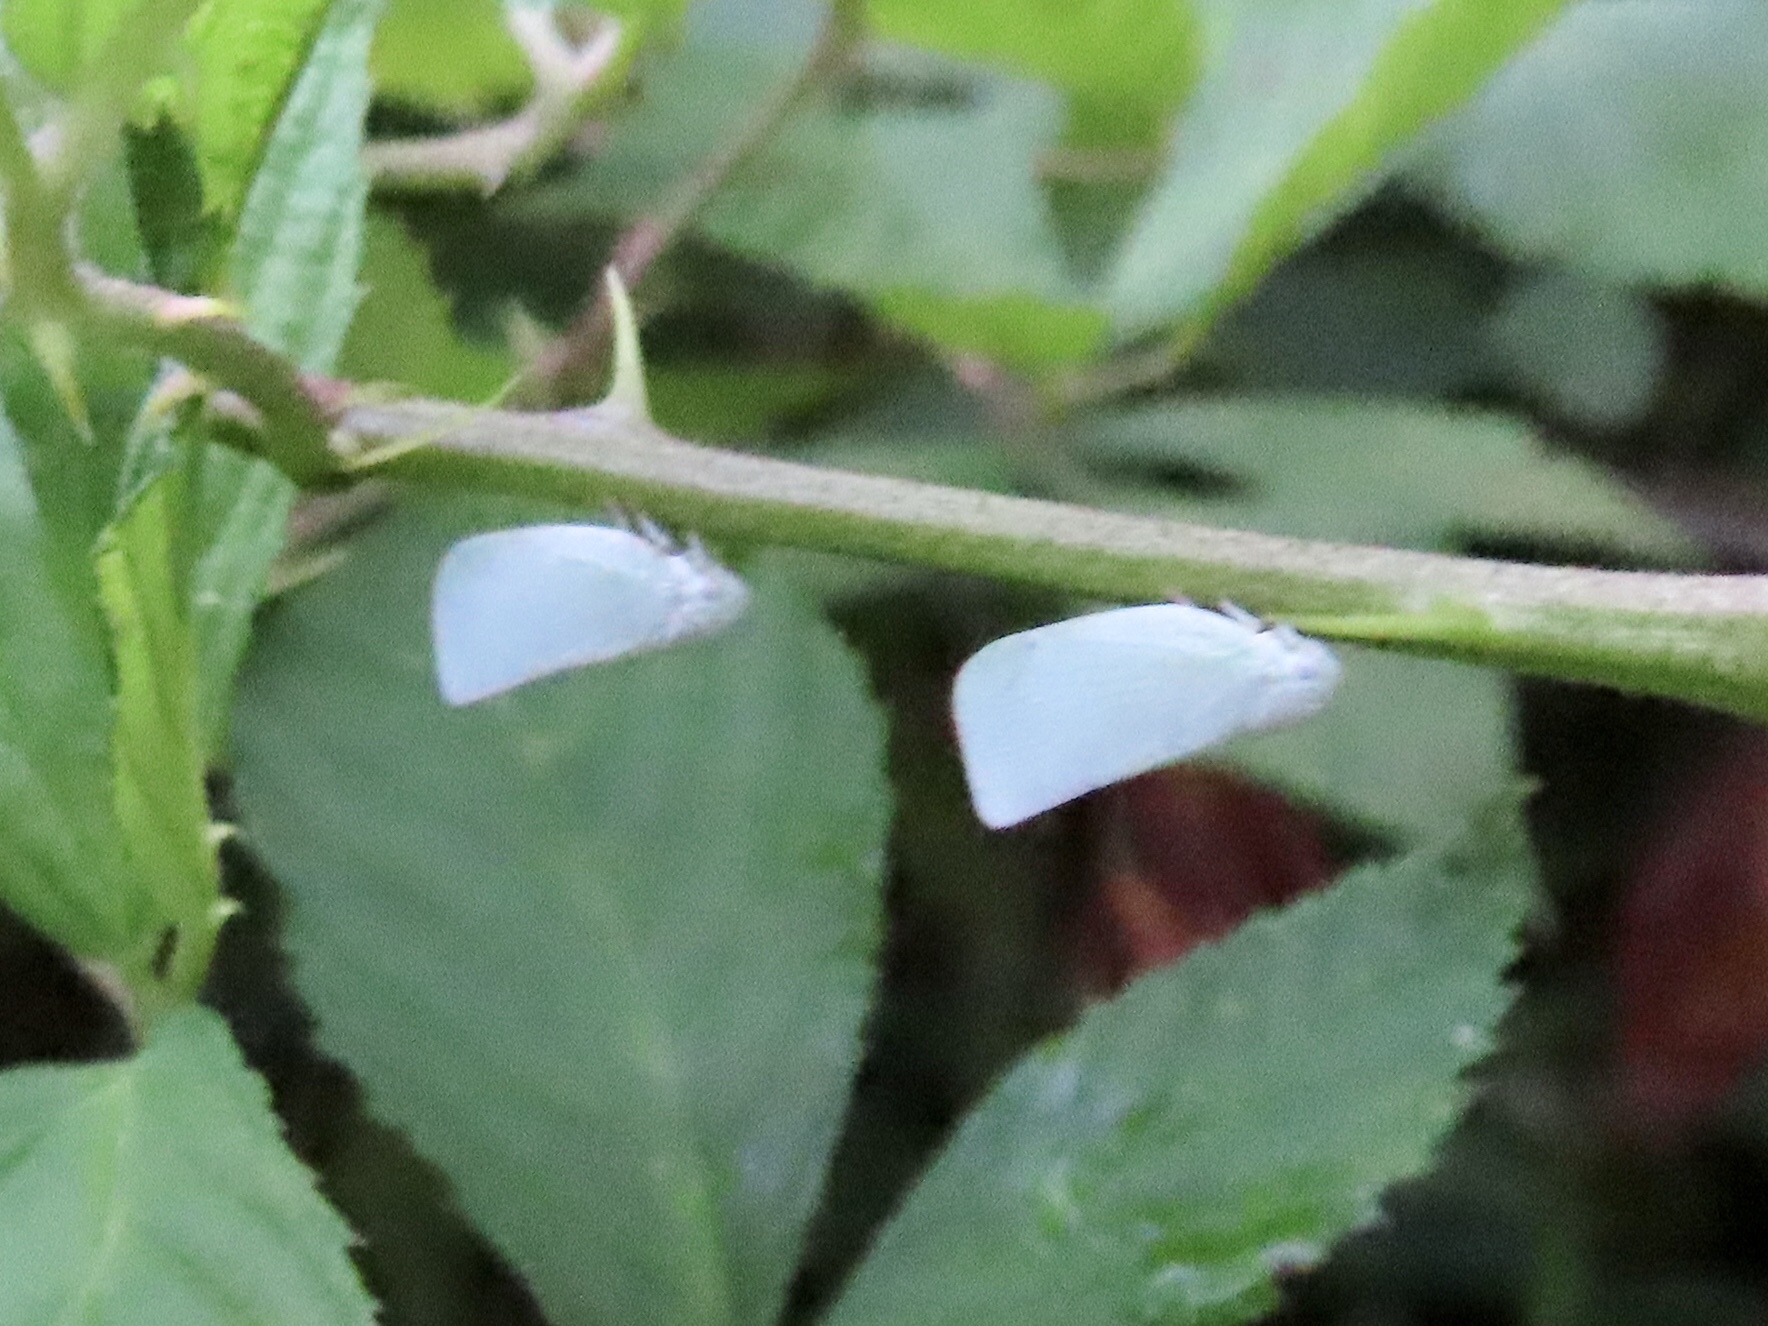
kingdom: Animalia
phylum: Arthropoda
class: Insecta
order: Hemiptera
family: Flatidae
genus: Flatormenis
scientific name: Flatormenis proxima
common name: Northern flatid planthopper
